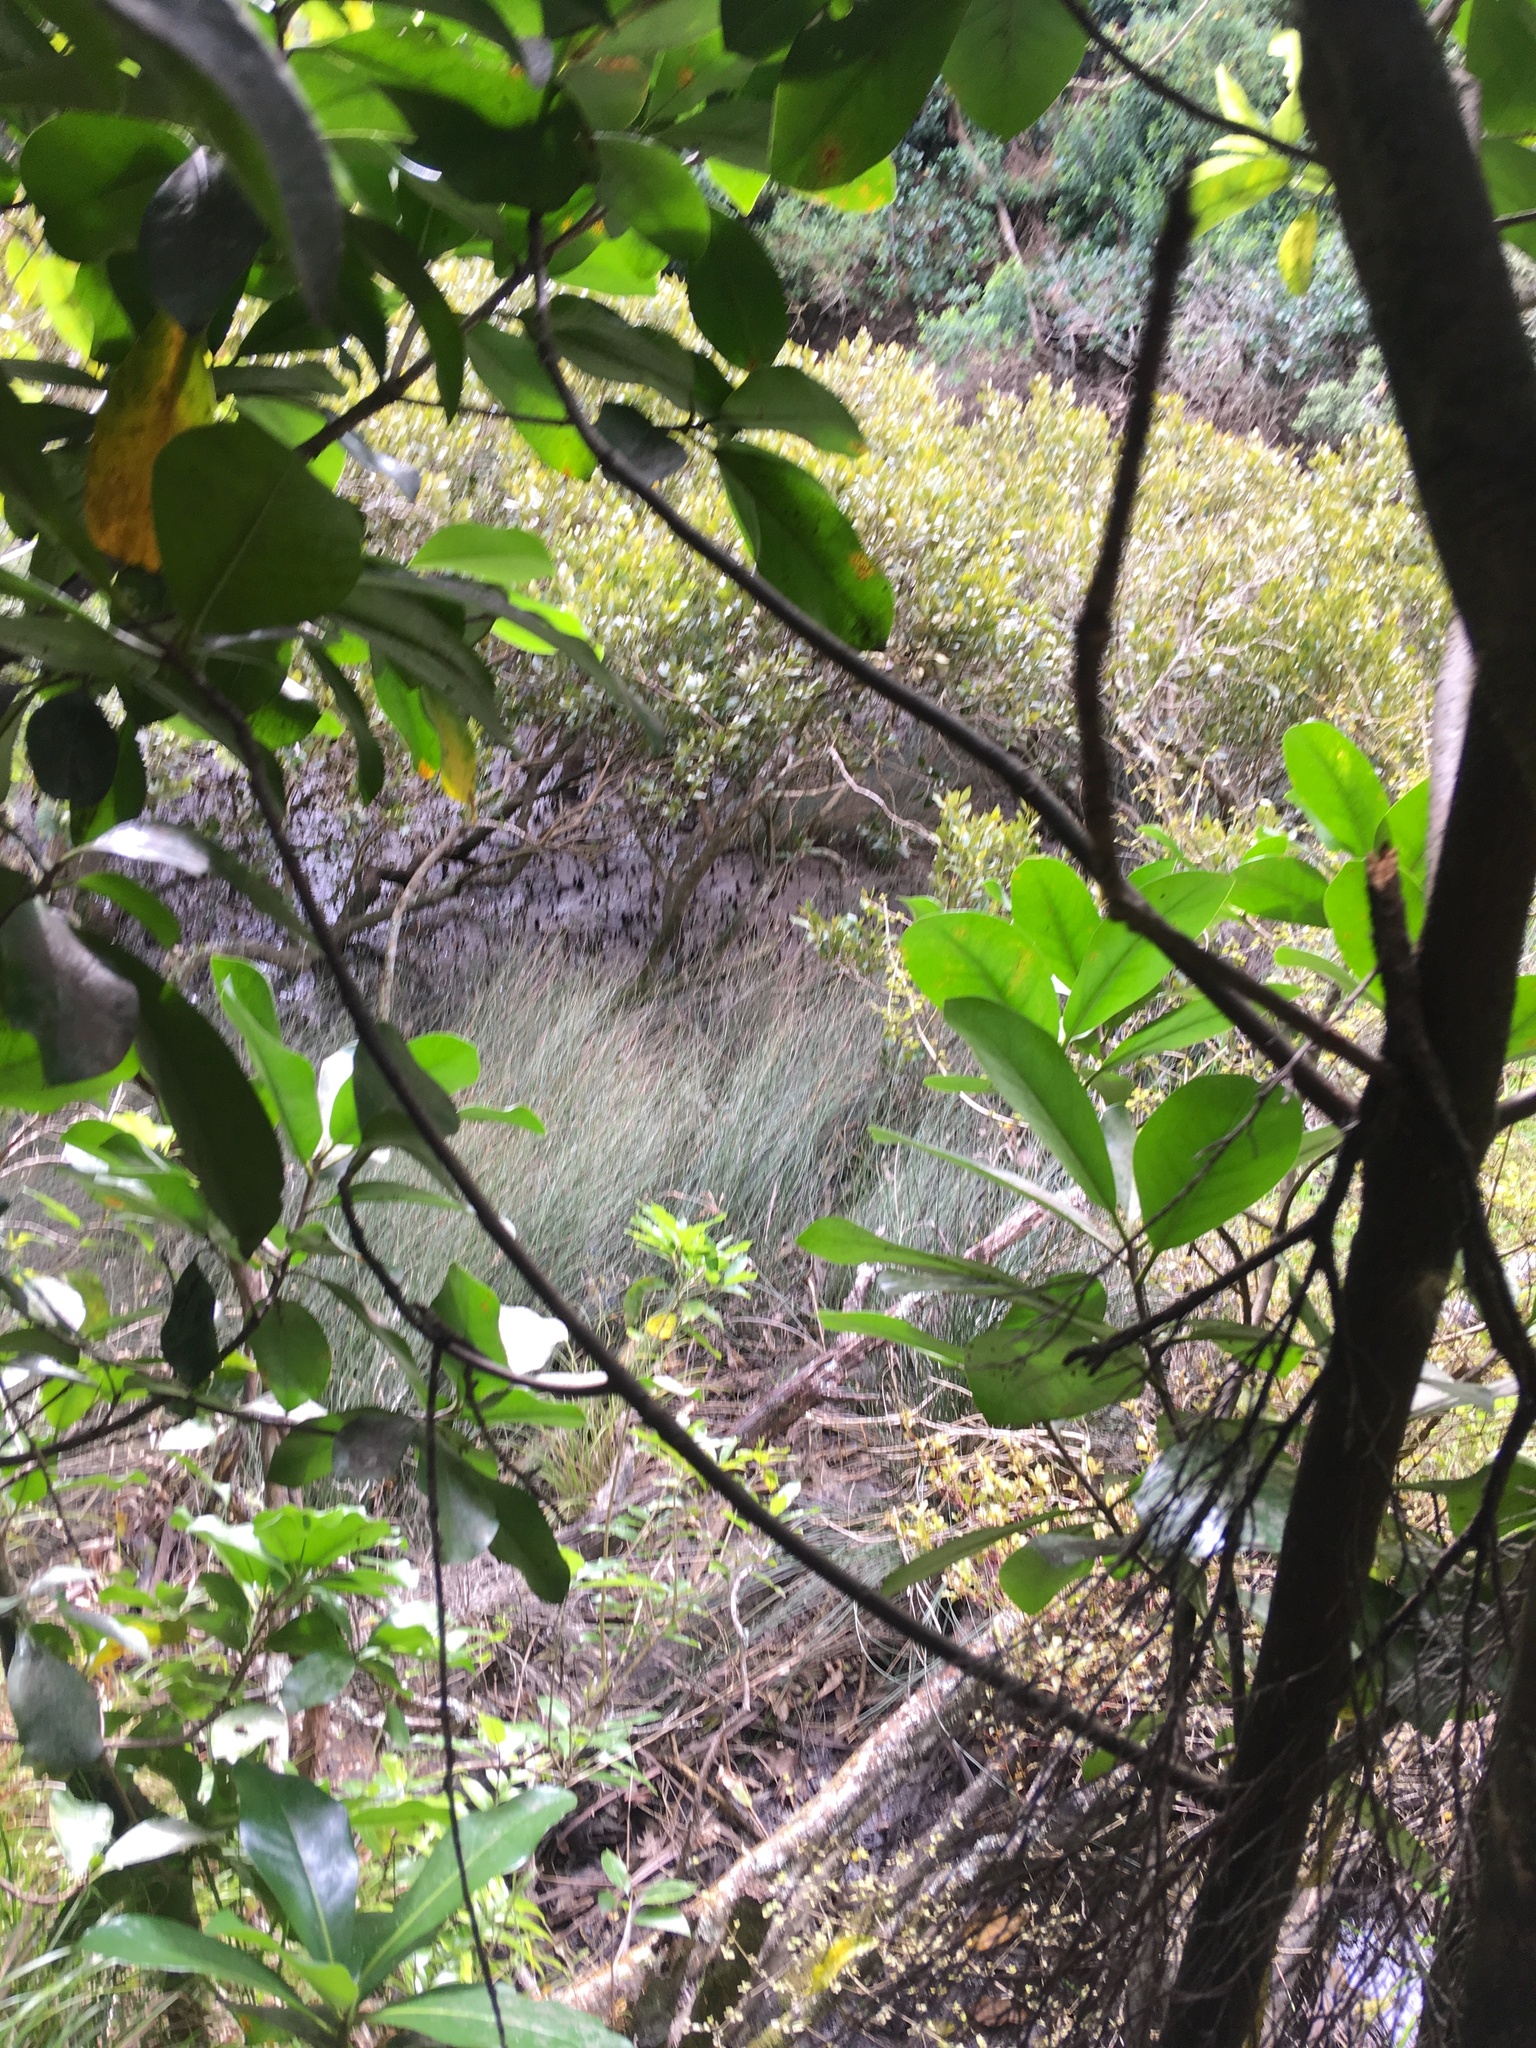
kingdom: Plantae
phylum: Tracheophyta
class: Liliopsida
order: Poales
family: Restionaceae
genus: Apodasmia
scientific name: Apodasmia similis
